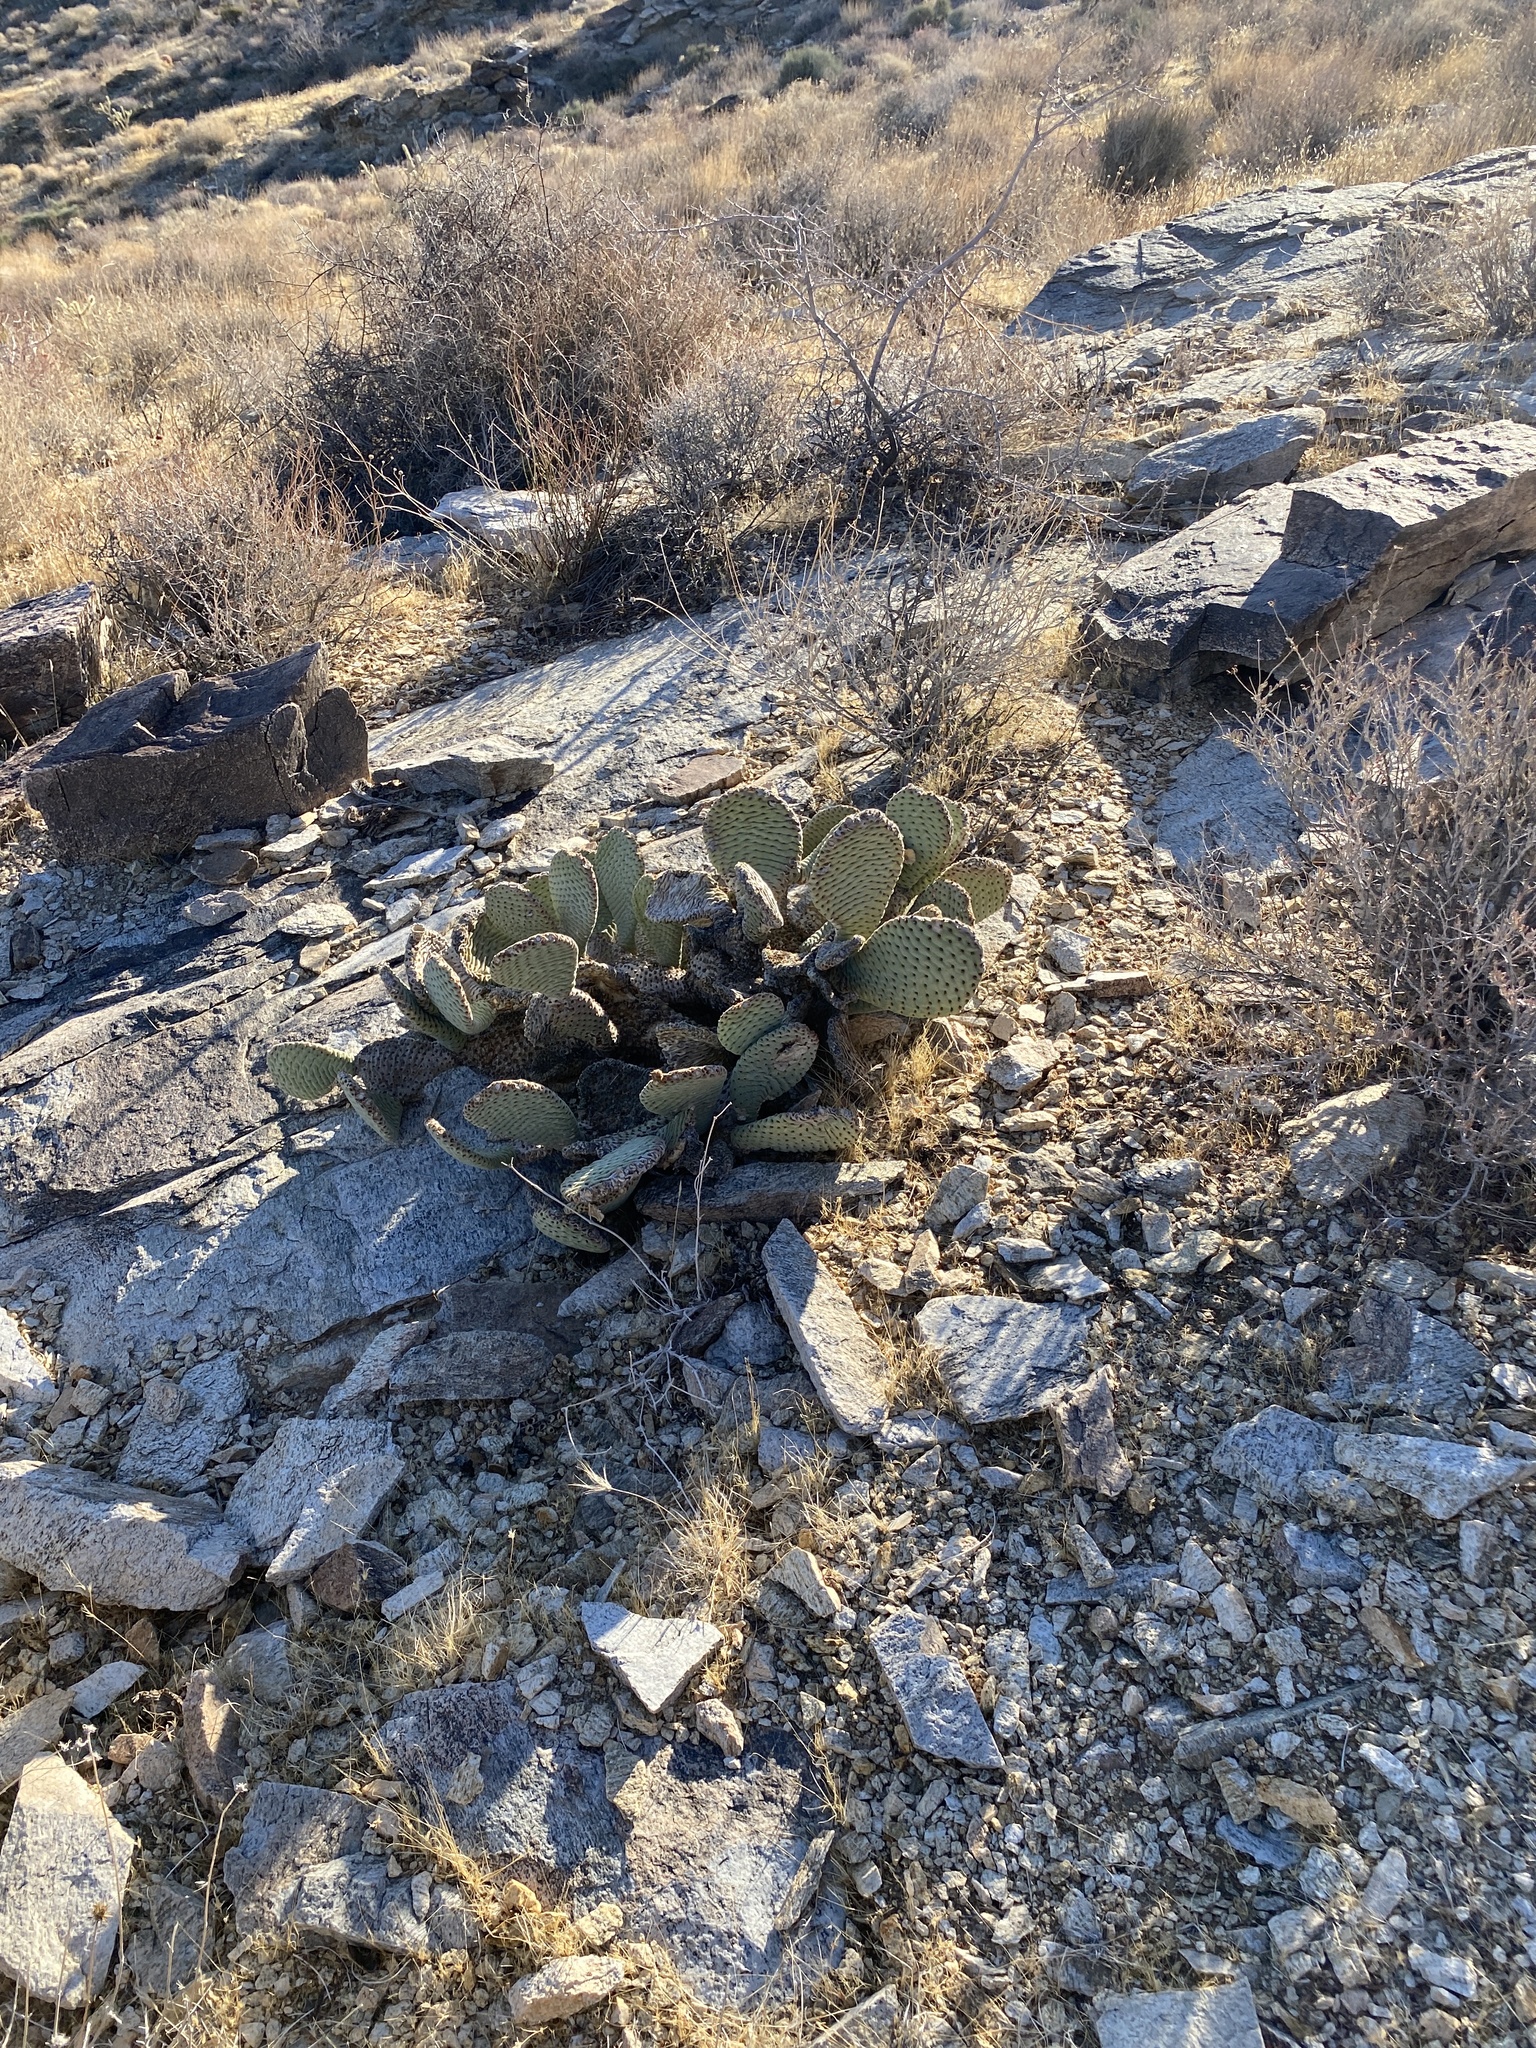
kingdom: Plantae
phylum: Tracheophyta
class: Magnoliopsida
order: Caryophyllales
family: Cactaceae
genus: Opuntia
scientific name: Opuntia basilaris
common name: Beavertail prickly-pear
